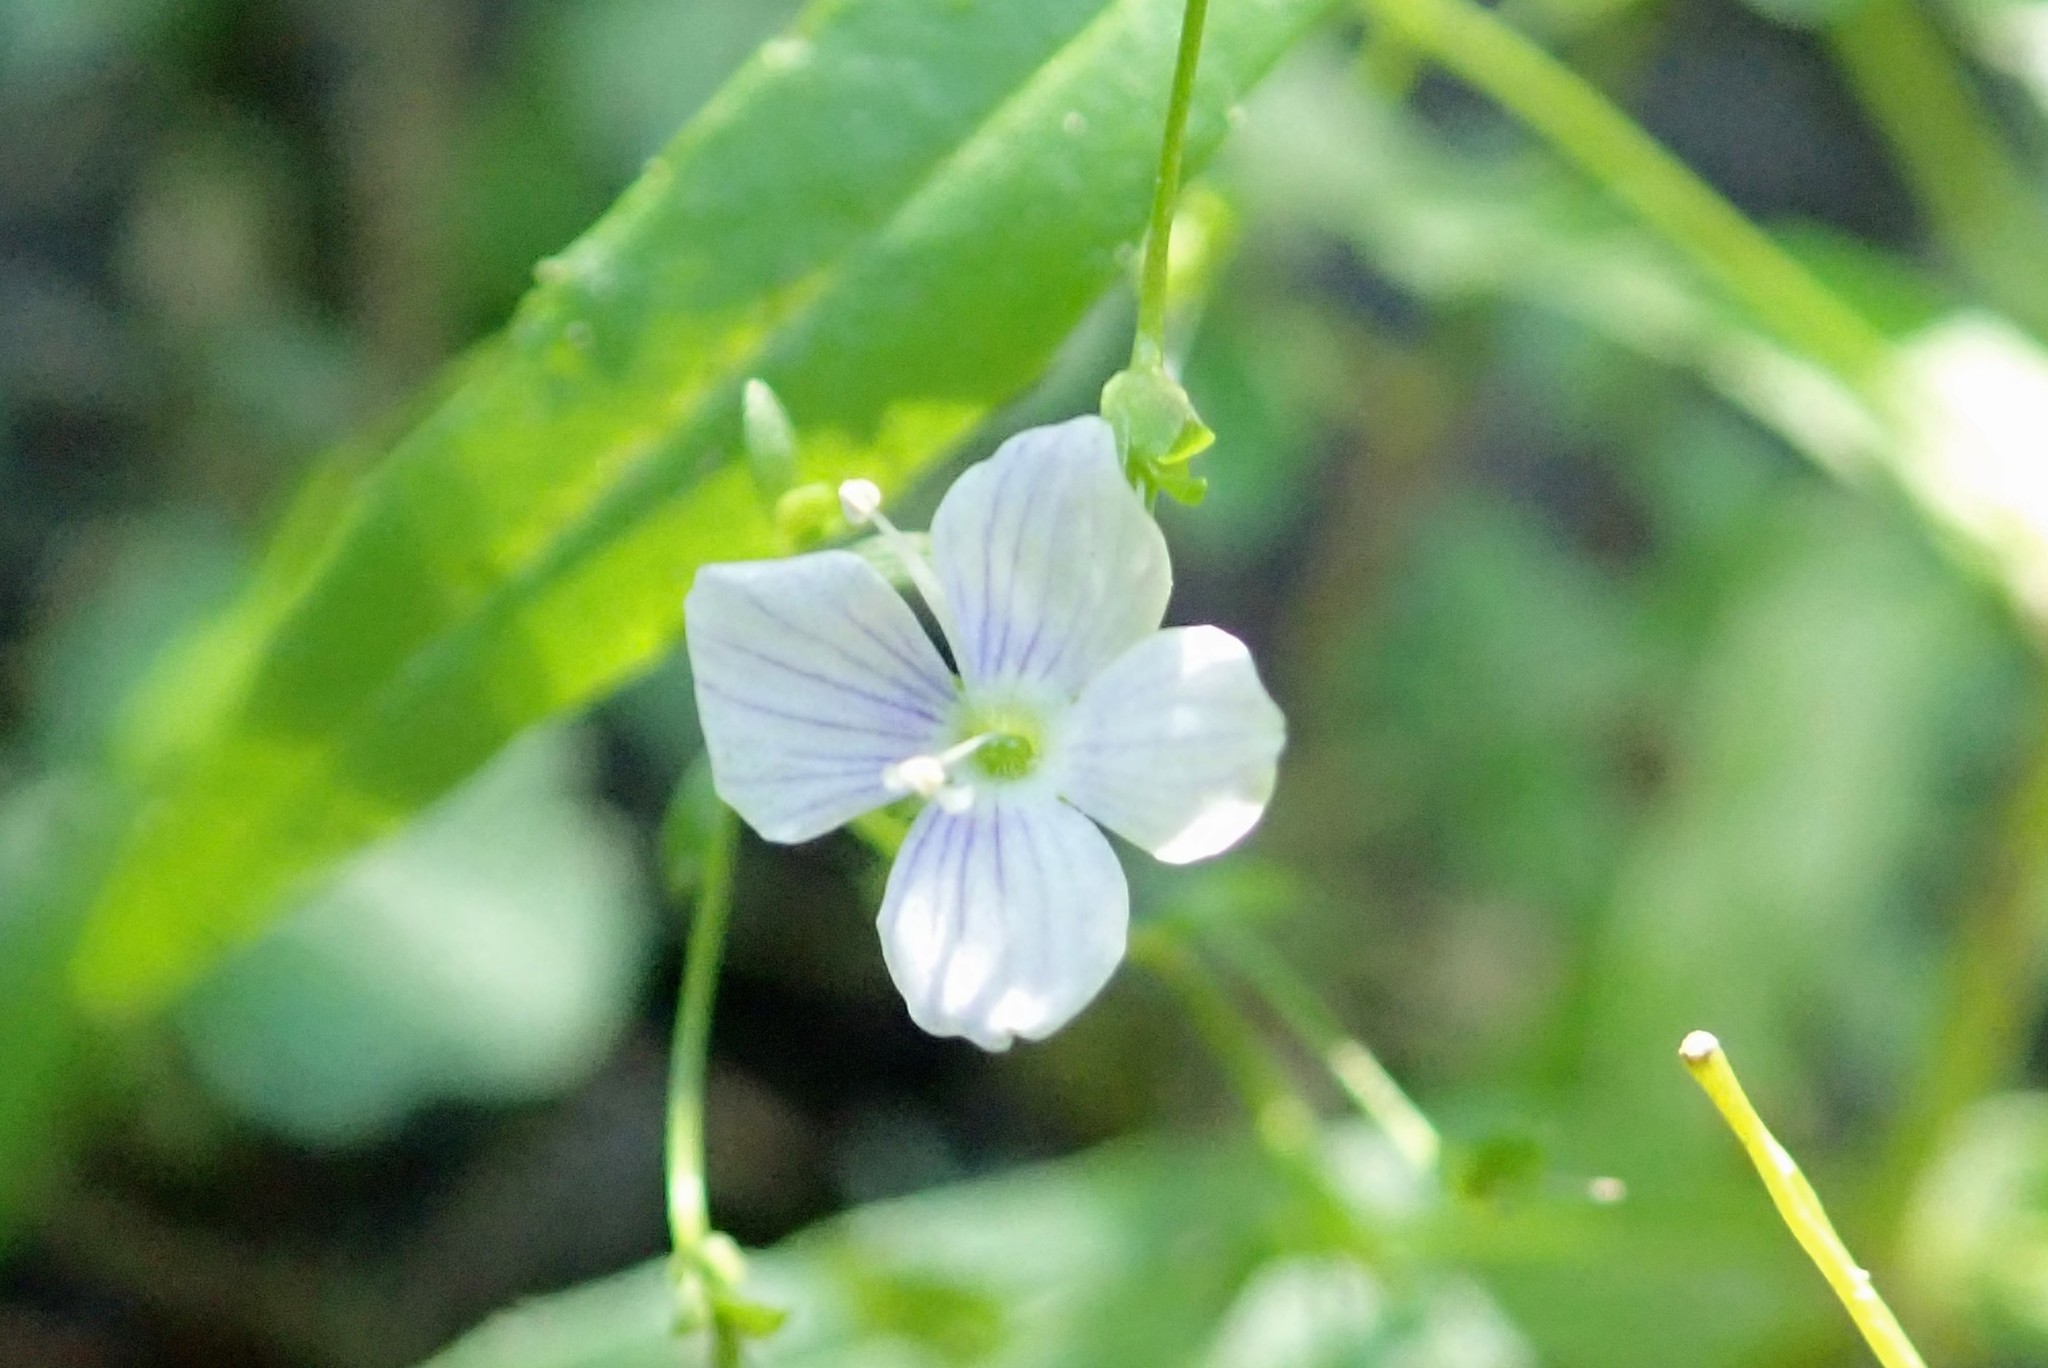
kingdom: Plantae
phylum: Tracheophyta
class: Magnoliopsida
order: Lamiales
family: Plantaginaceae
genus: Veronica
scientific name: Veronica scutellata
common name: Marsh speedwell
